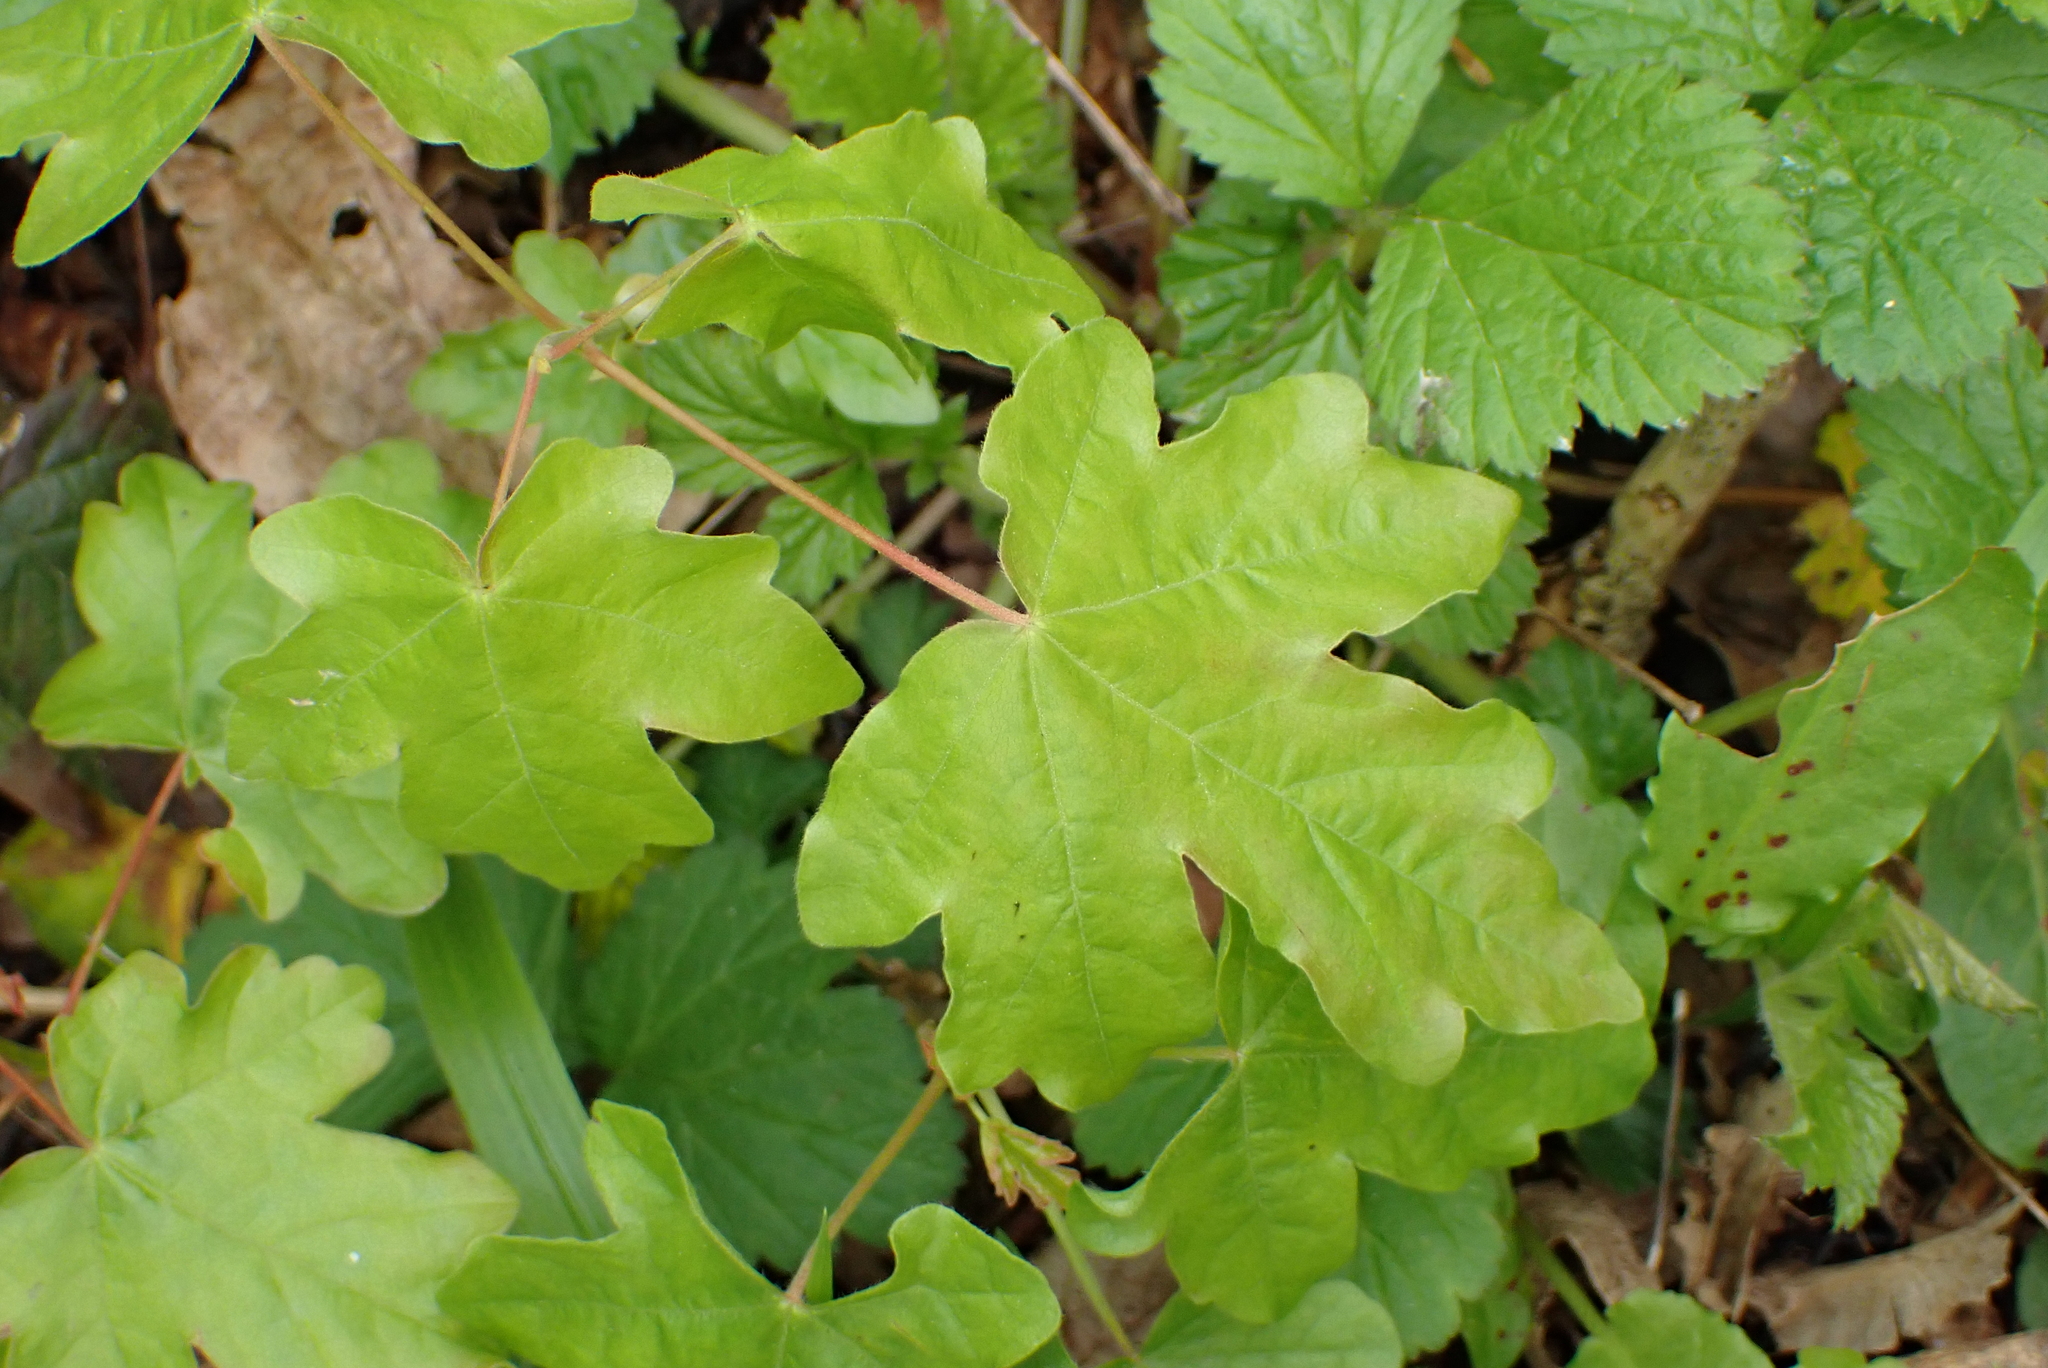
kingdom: Plantae
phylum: Tracheophyta
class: Magnoliopsida
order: Sapindales
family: Sapindaceae
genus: Acer
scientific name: Acer campestre
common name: Field maple
